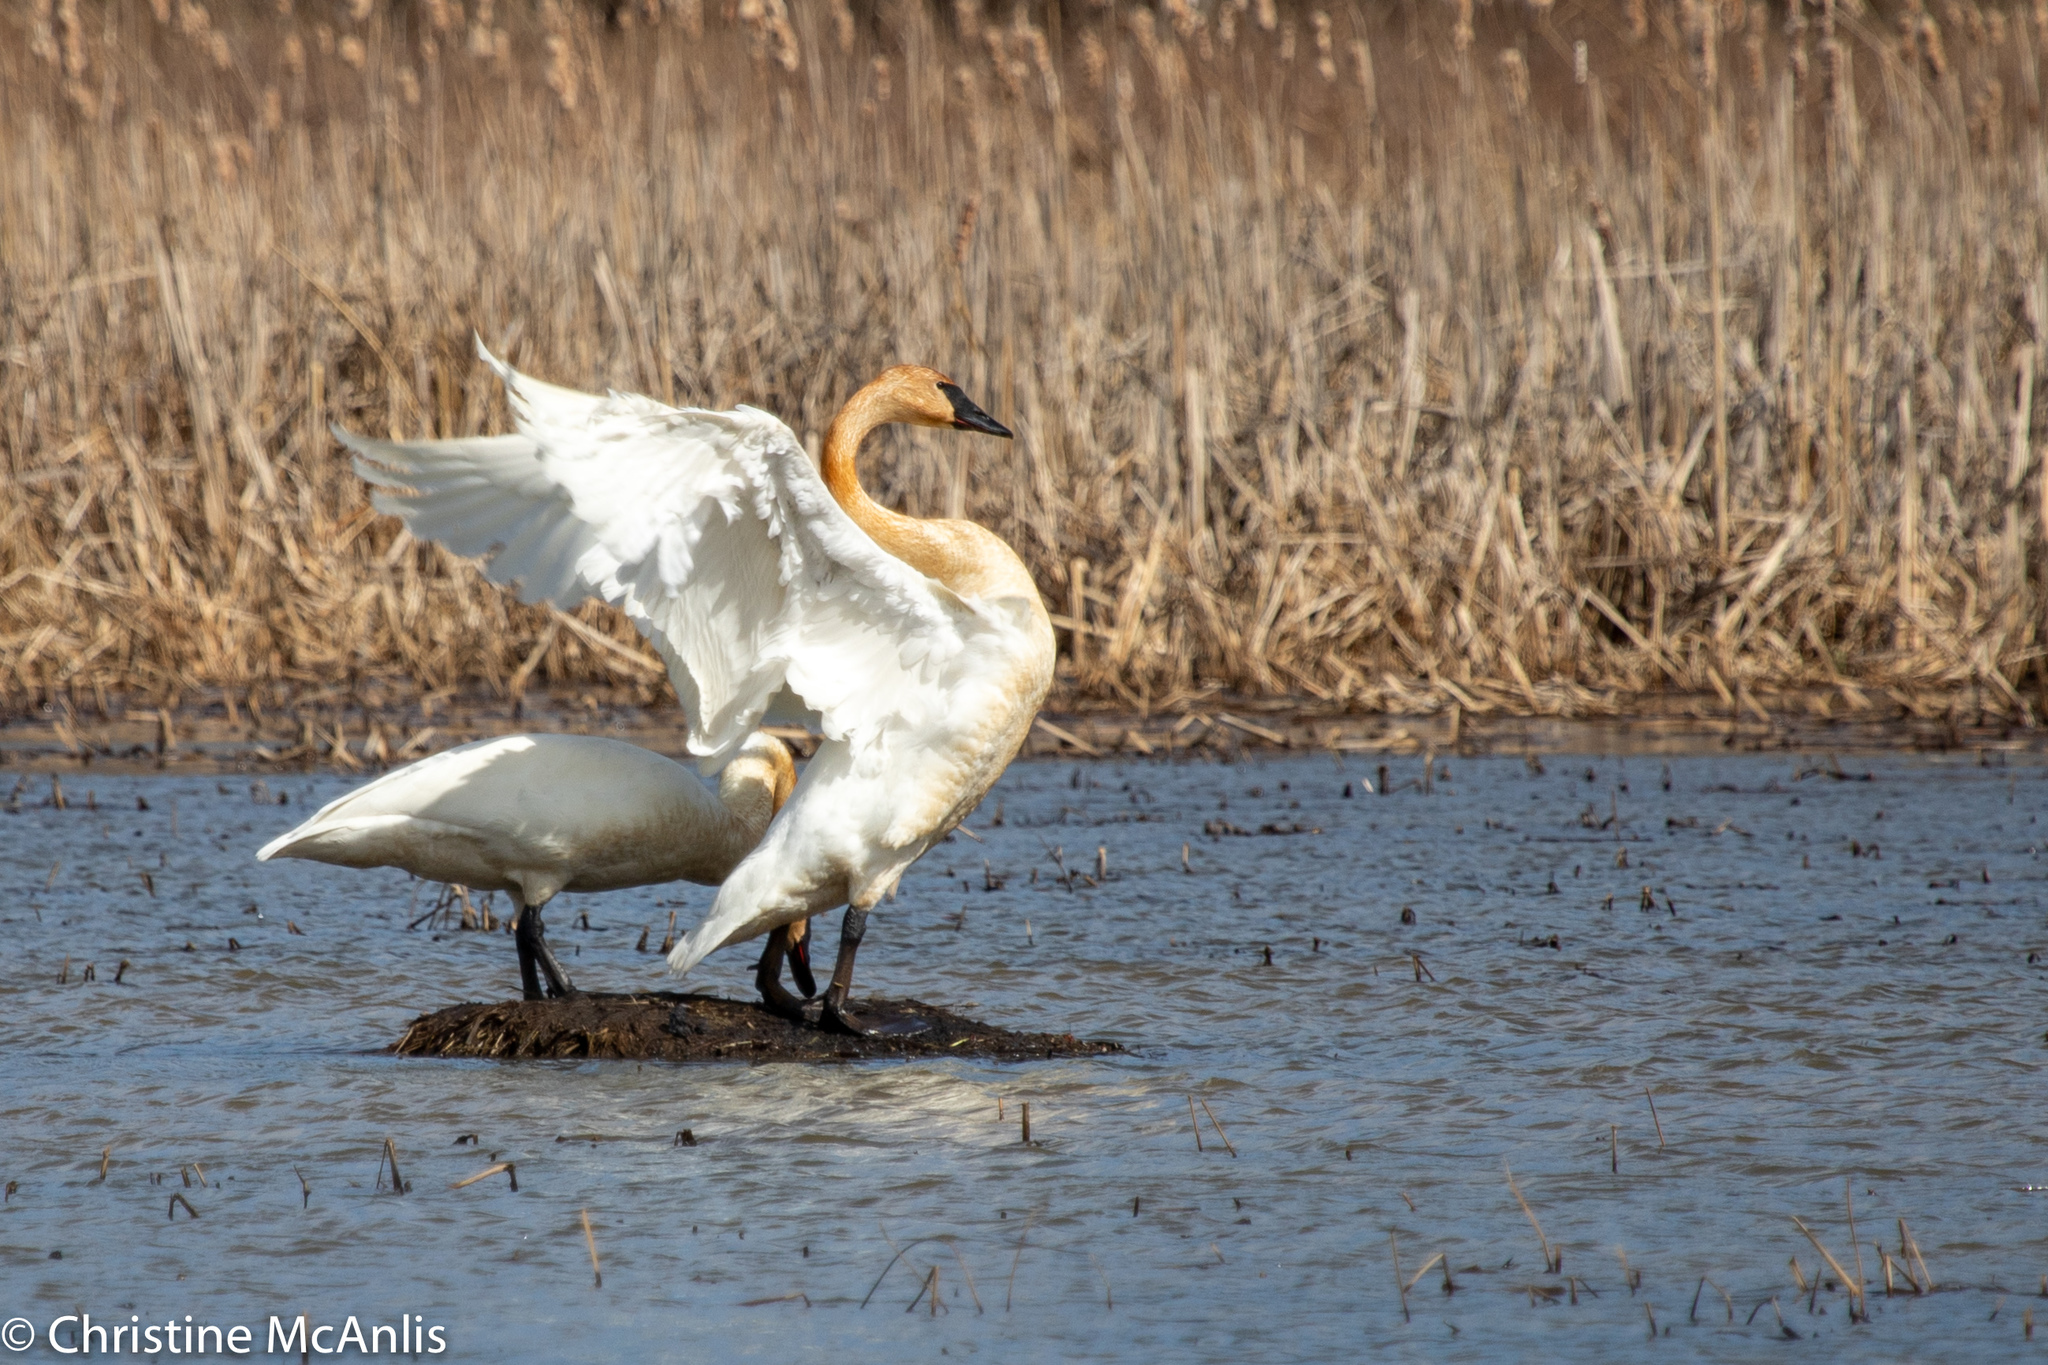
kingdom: Animalia
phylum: Chordata
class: Aves
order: Anseriformes
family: Anatidae
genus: Cygnus
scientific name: Cygnus buccinator
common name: Trumpeter swan
